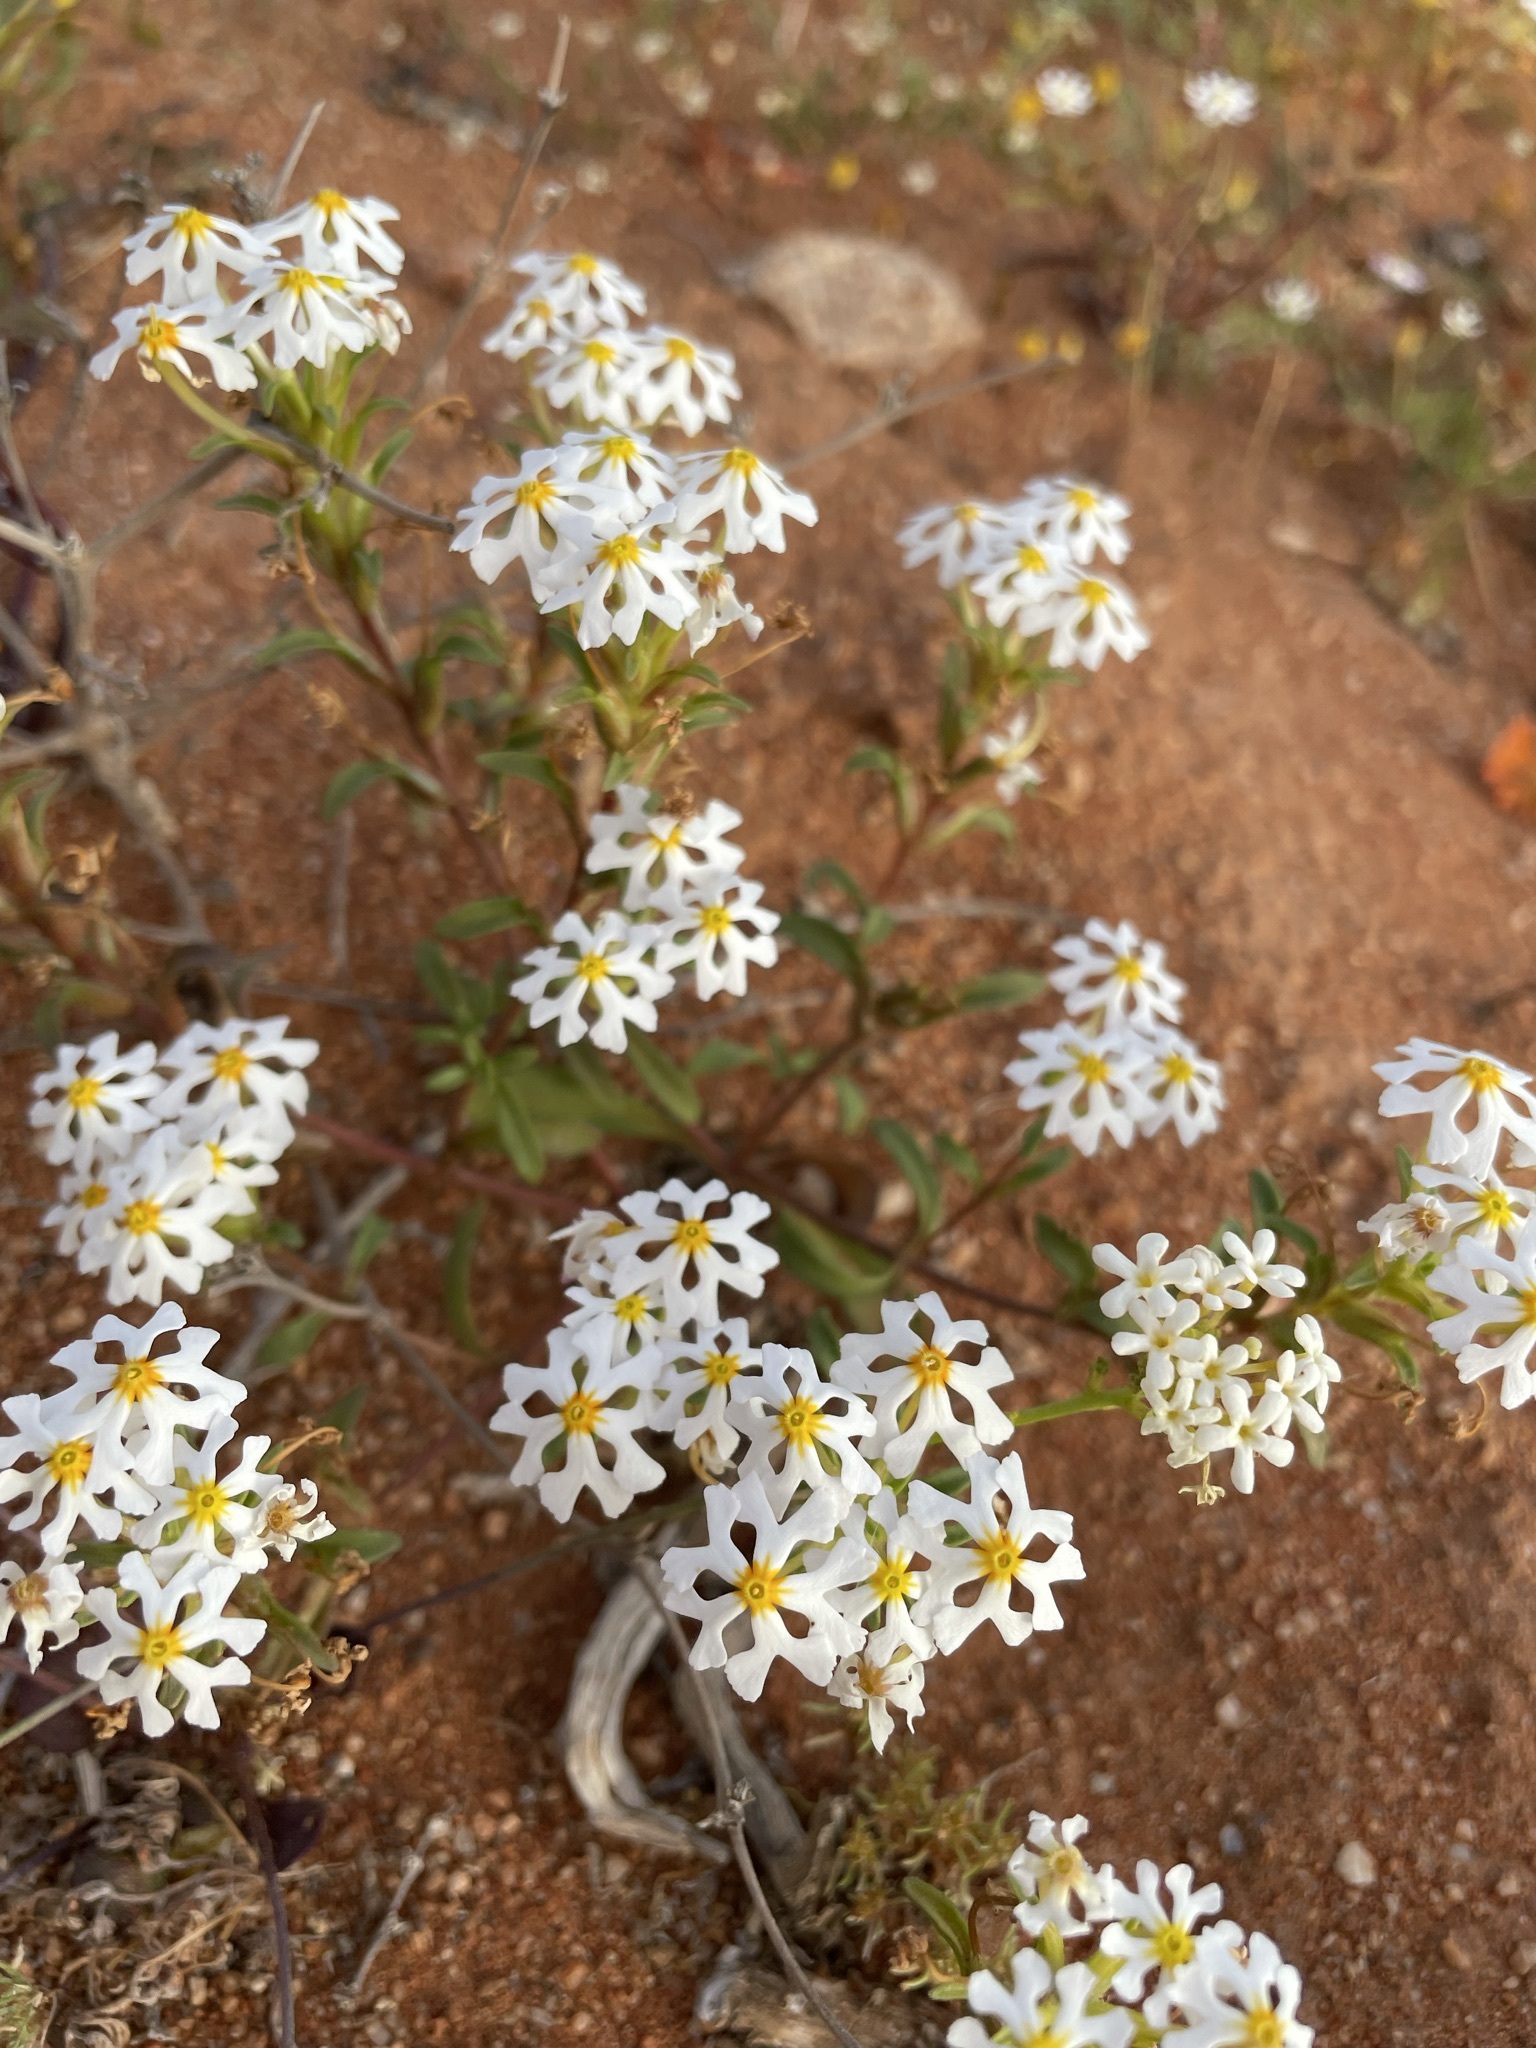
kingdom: Plantae
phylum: Tracheophyta
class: Magnoliopsida
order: Lamiales
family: Scrophulariaceae
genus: Zaluzianskya
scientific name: Zaluzianskya affinis
